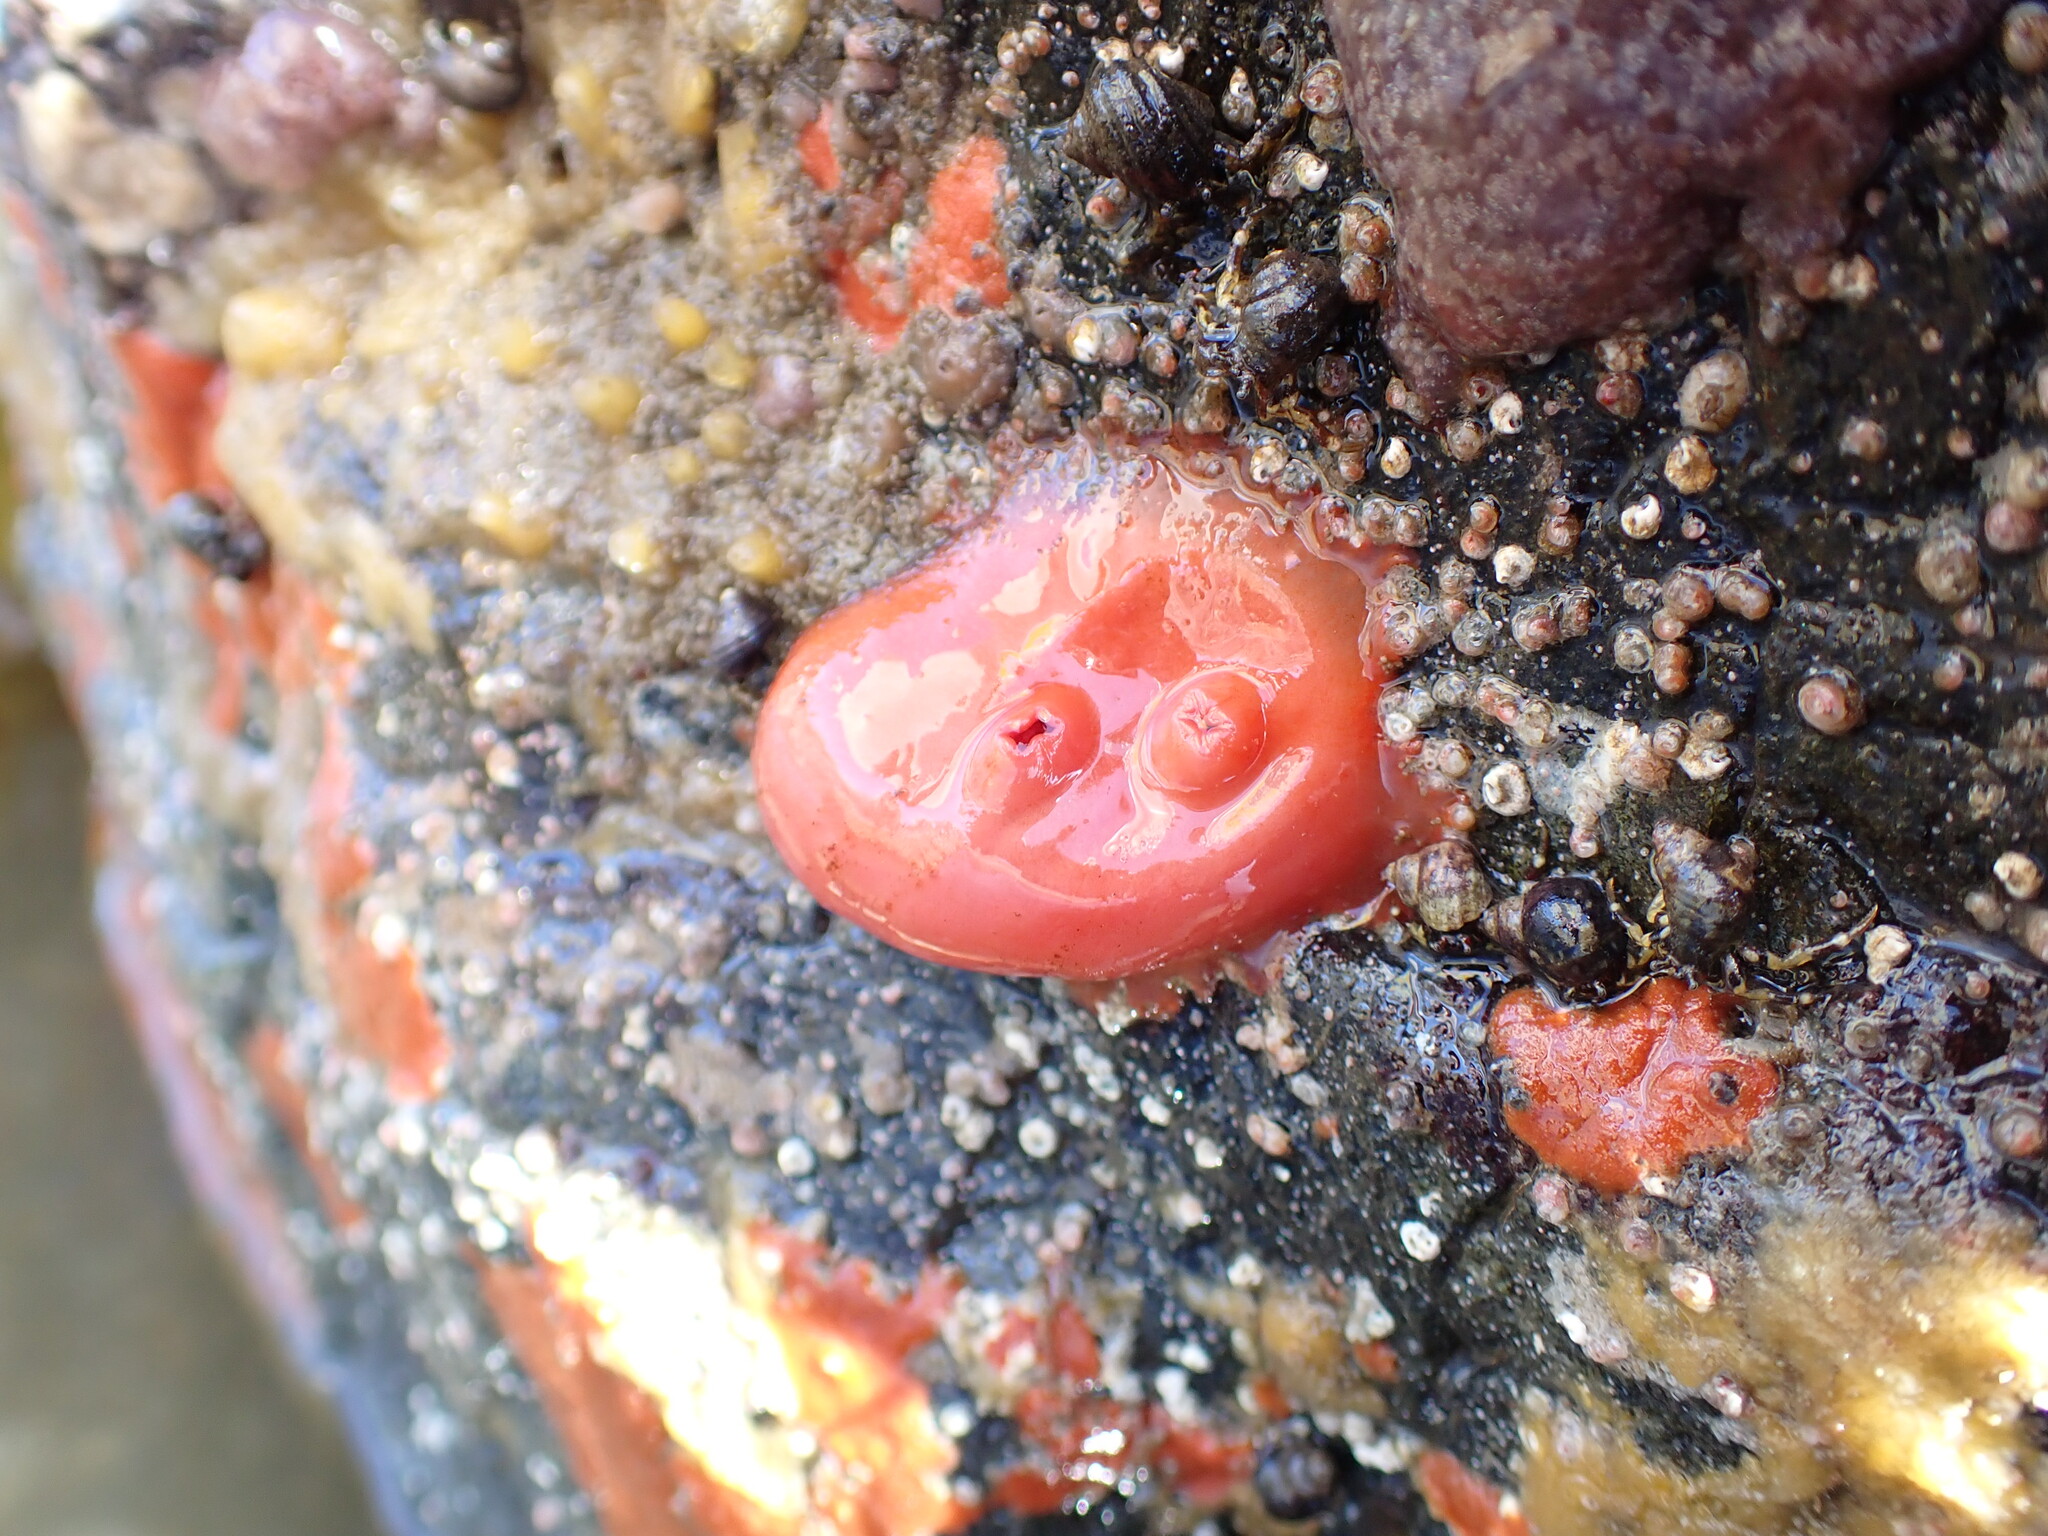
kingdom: Animalia
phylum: Chordata
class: Ascidiacea
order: Stolidobranchia
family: Styelidae
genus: Cnemidocarpa
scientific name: Cnemidocarpa finmarkiensis
